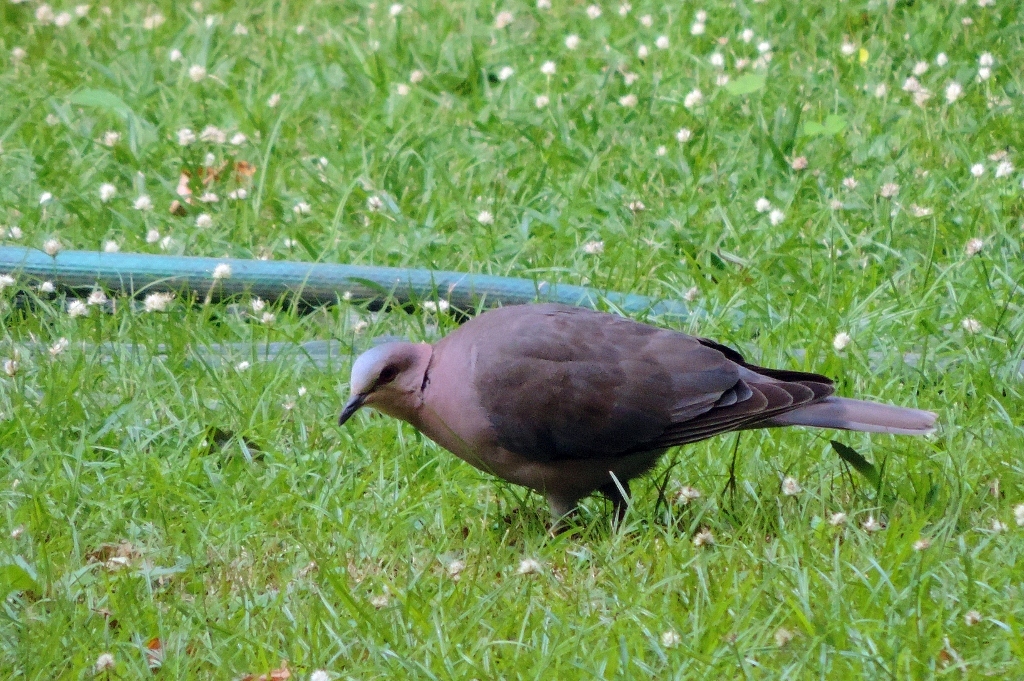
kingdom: Animalia
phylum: Chordata
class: Aves
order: Columbiformes
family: Columbidae
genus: Streptopelia
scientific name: Streptopelia semitorquata
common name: Red-eyed dove
